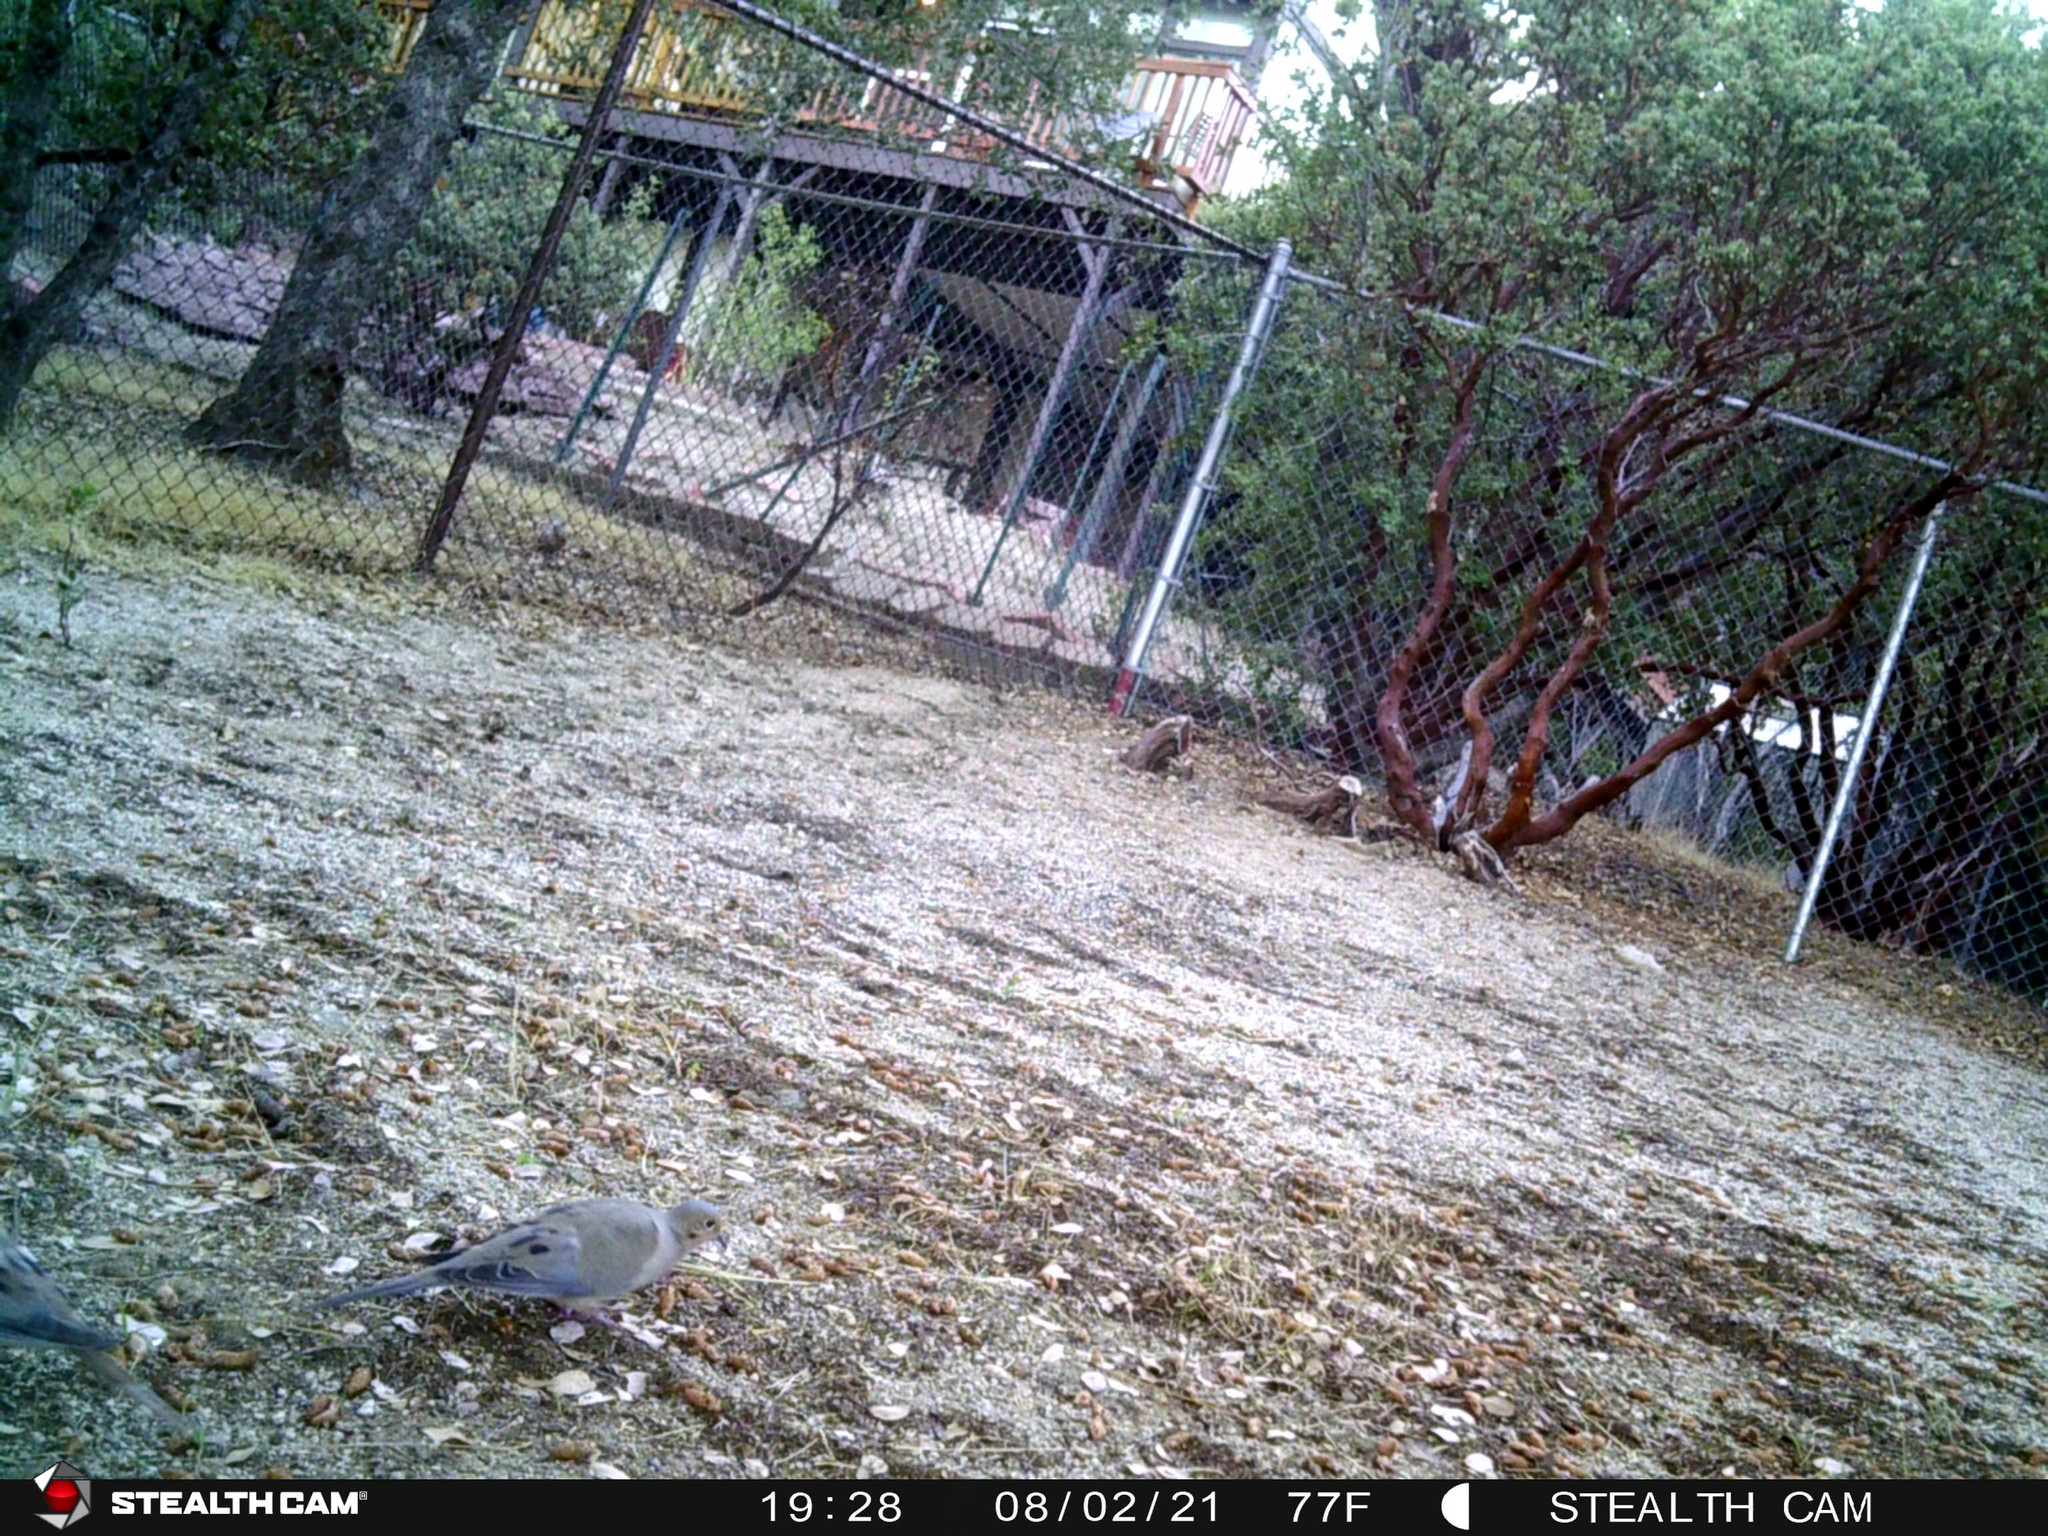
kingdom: Animalia
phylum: Chordata
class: Aves
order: Columbiformes
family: Columbidae
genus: Zenaida
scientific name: Zenaida macroura
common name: Mourning dove
